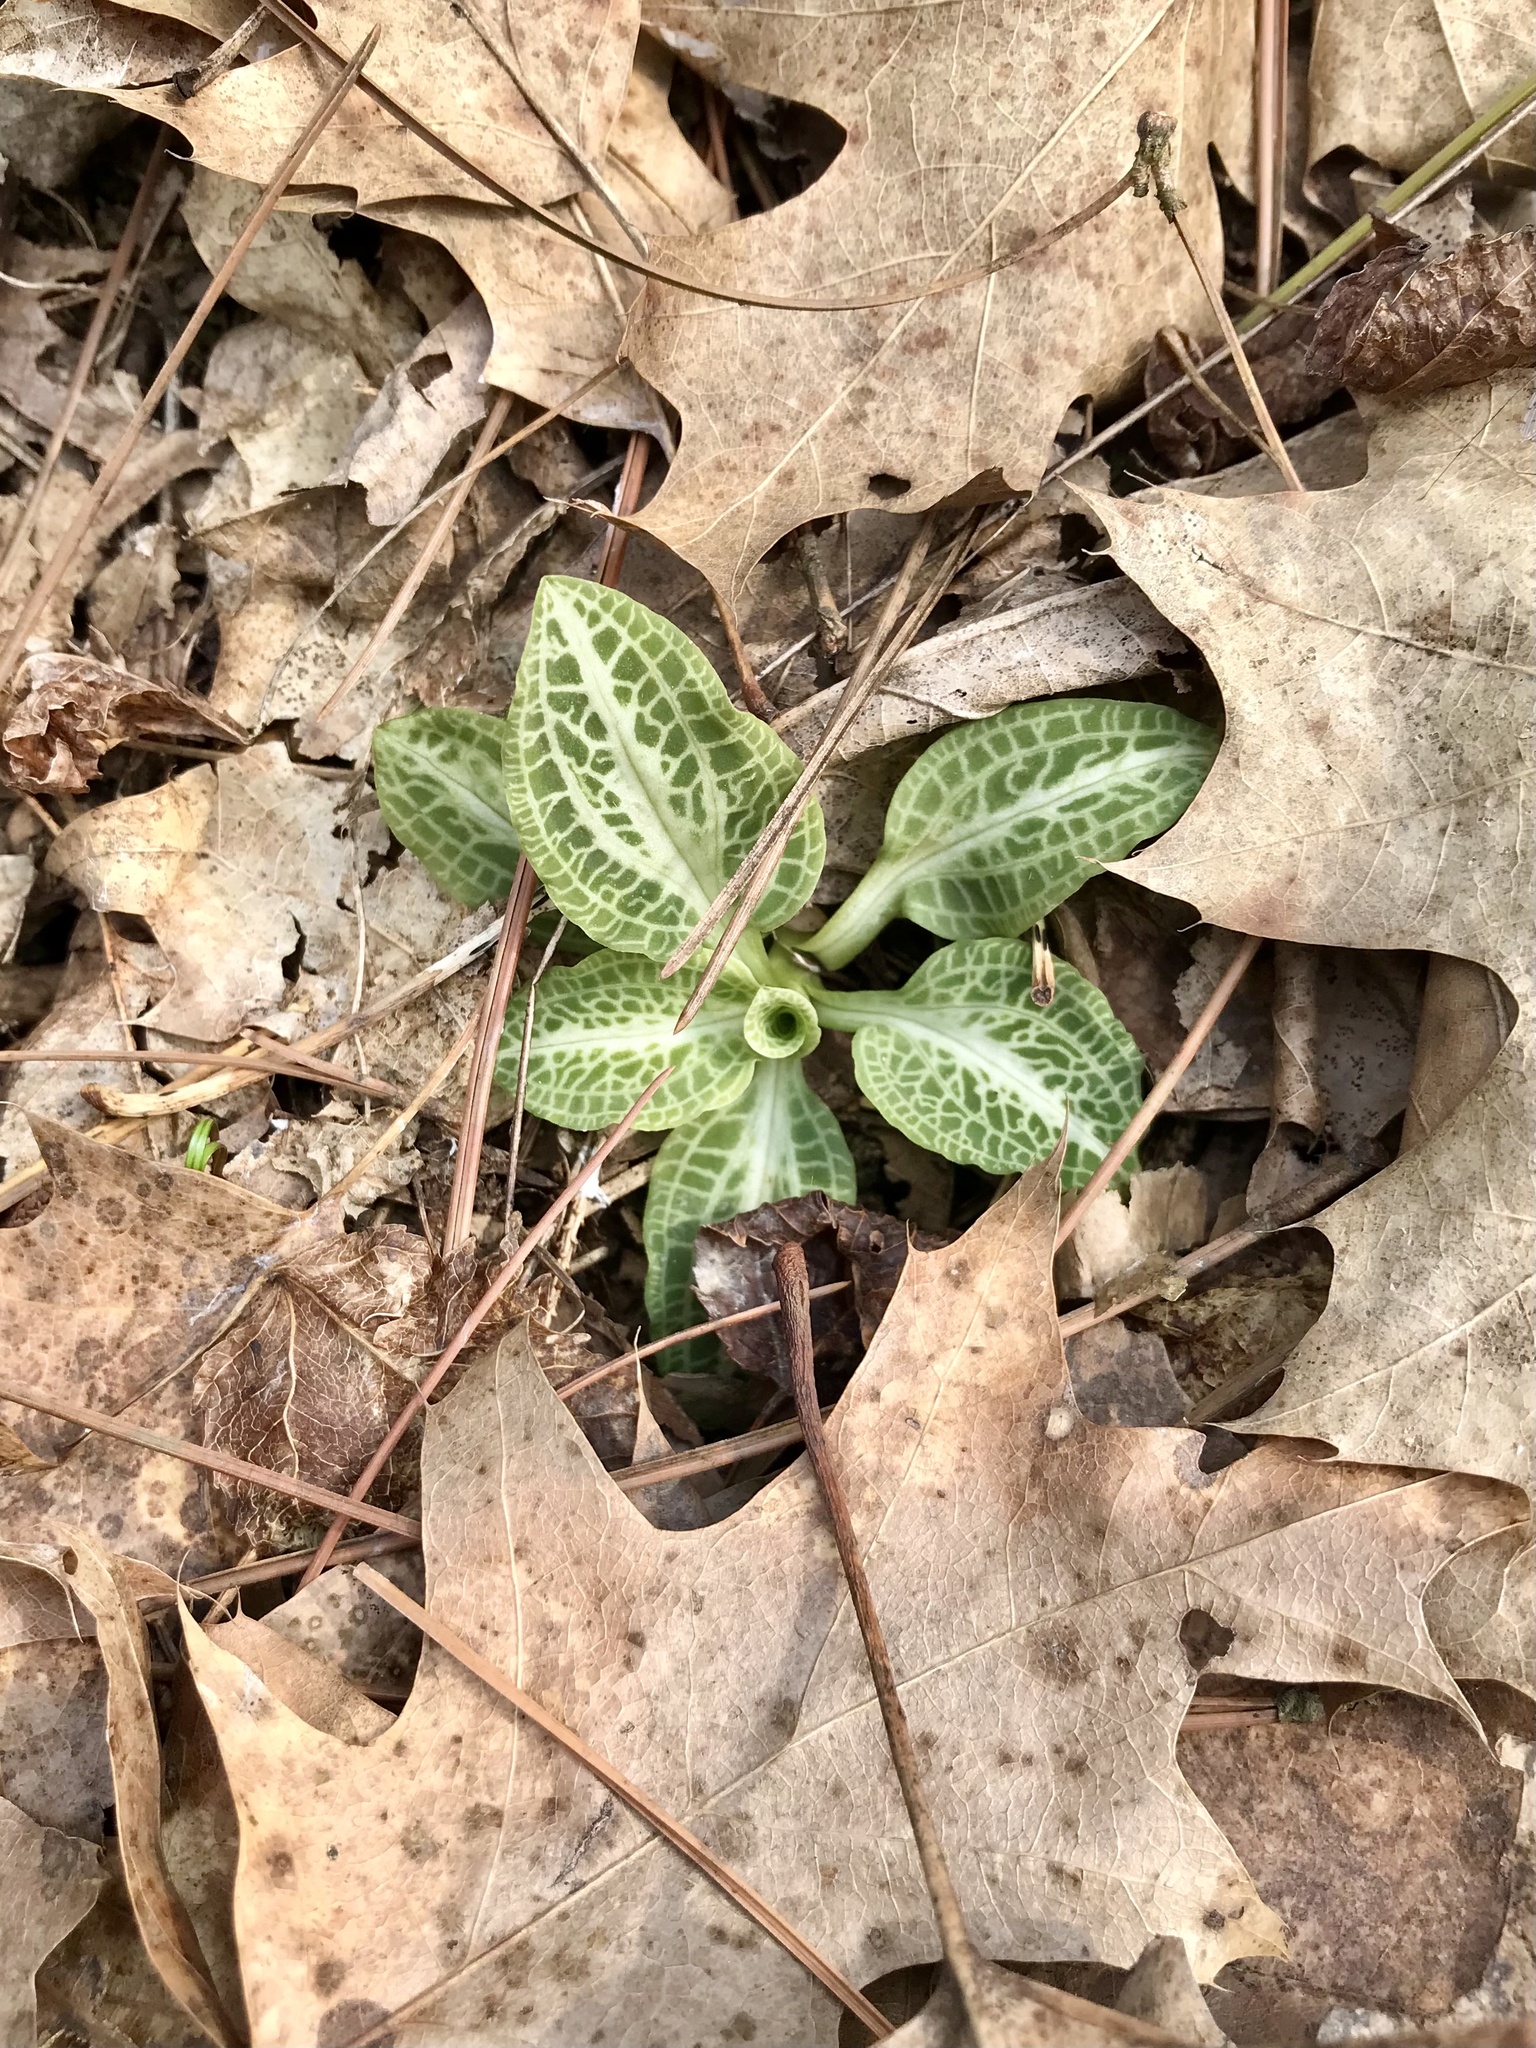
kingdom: Plantae
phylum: Tracheophyta
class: Liliopsida
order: Asparagales
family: Orchidaceae
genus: Goodyera
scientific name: Goodyera pubescens
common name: Downy rattlesnake-plantain
